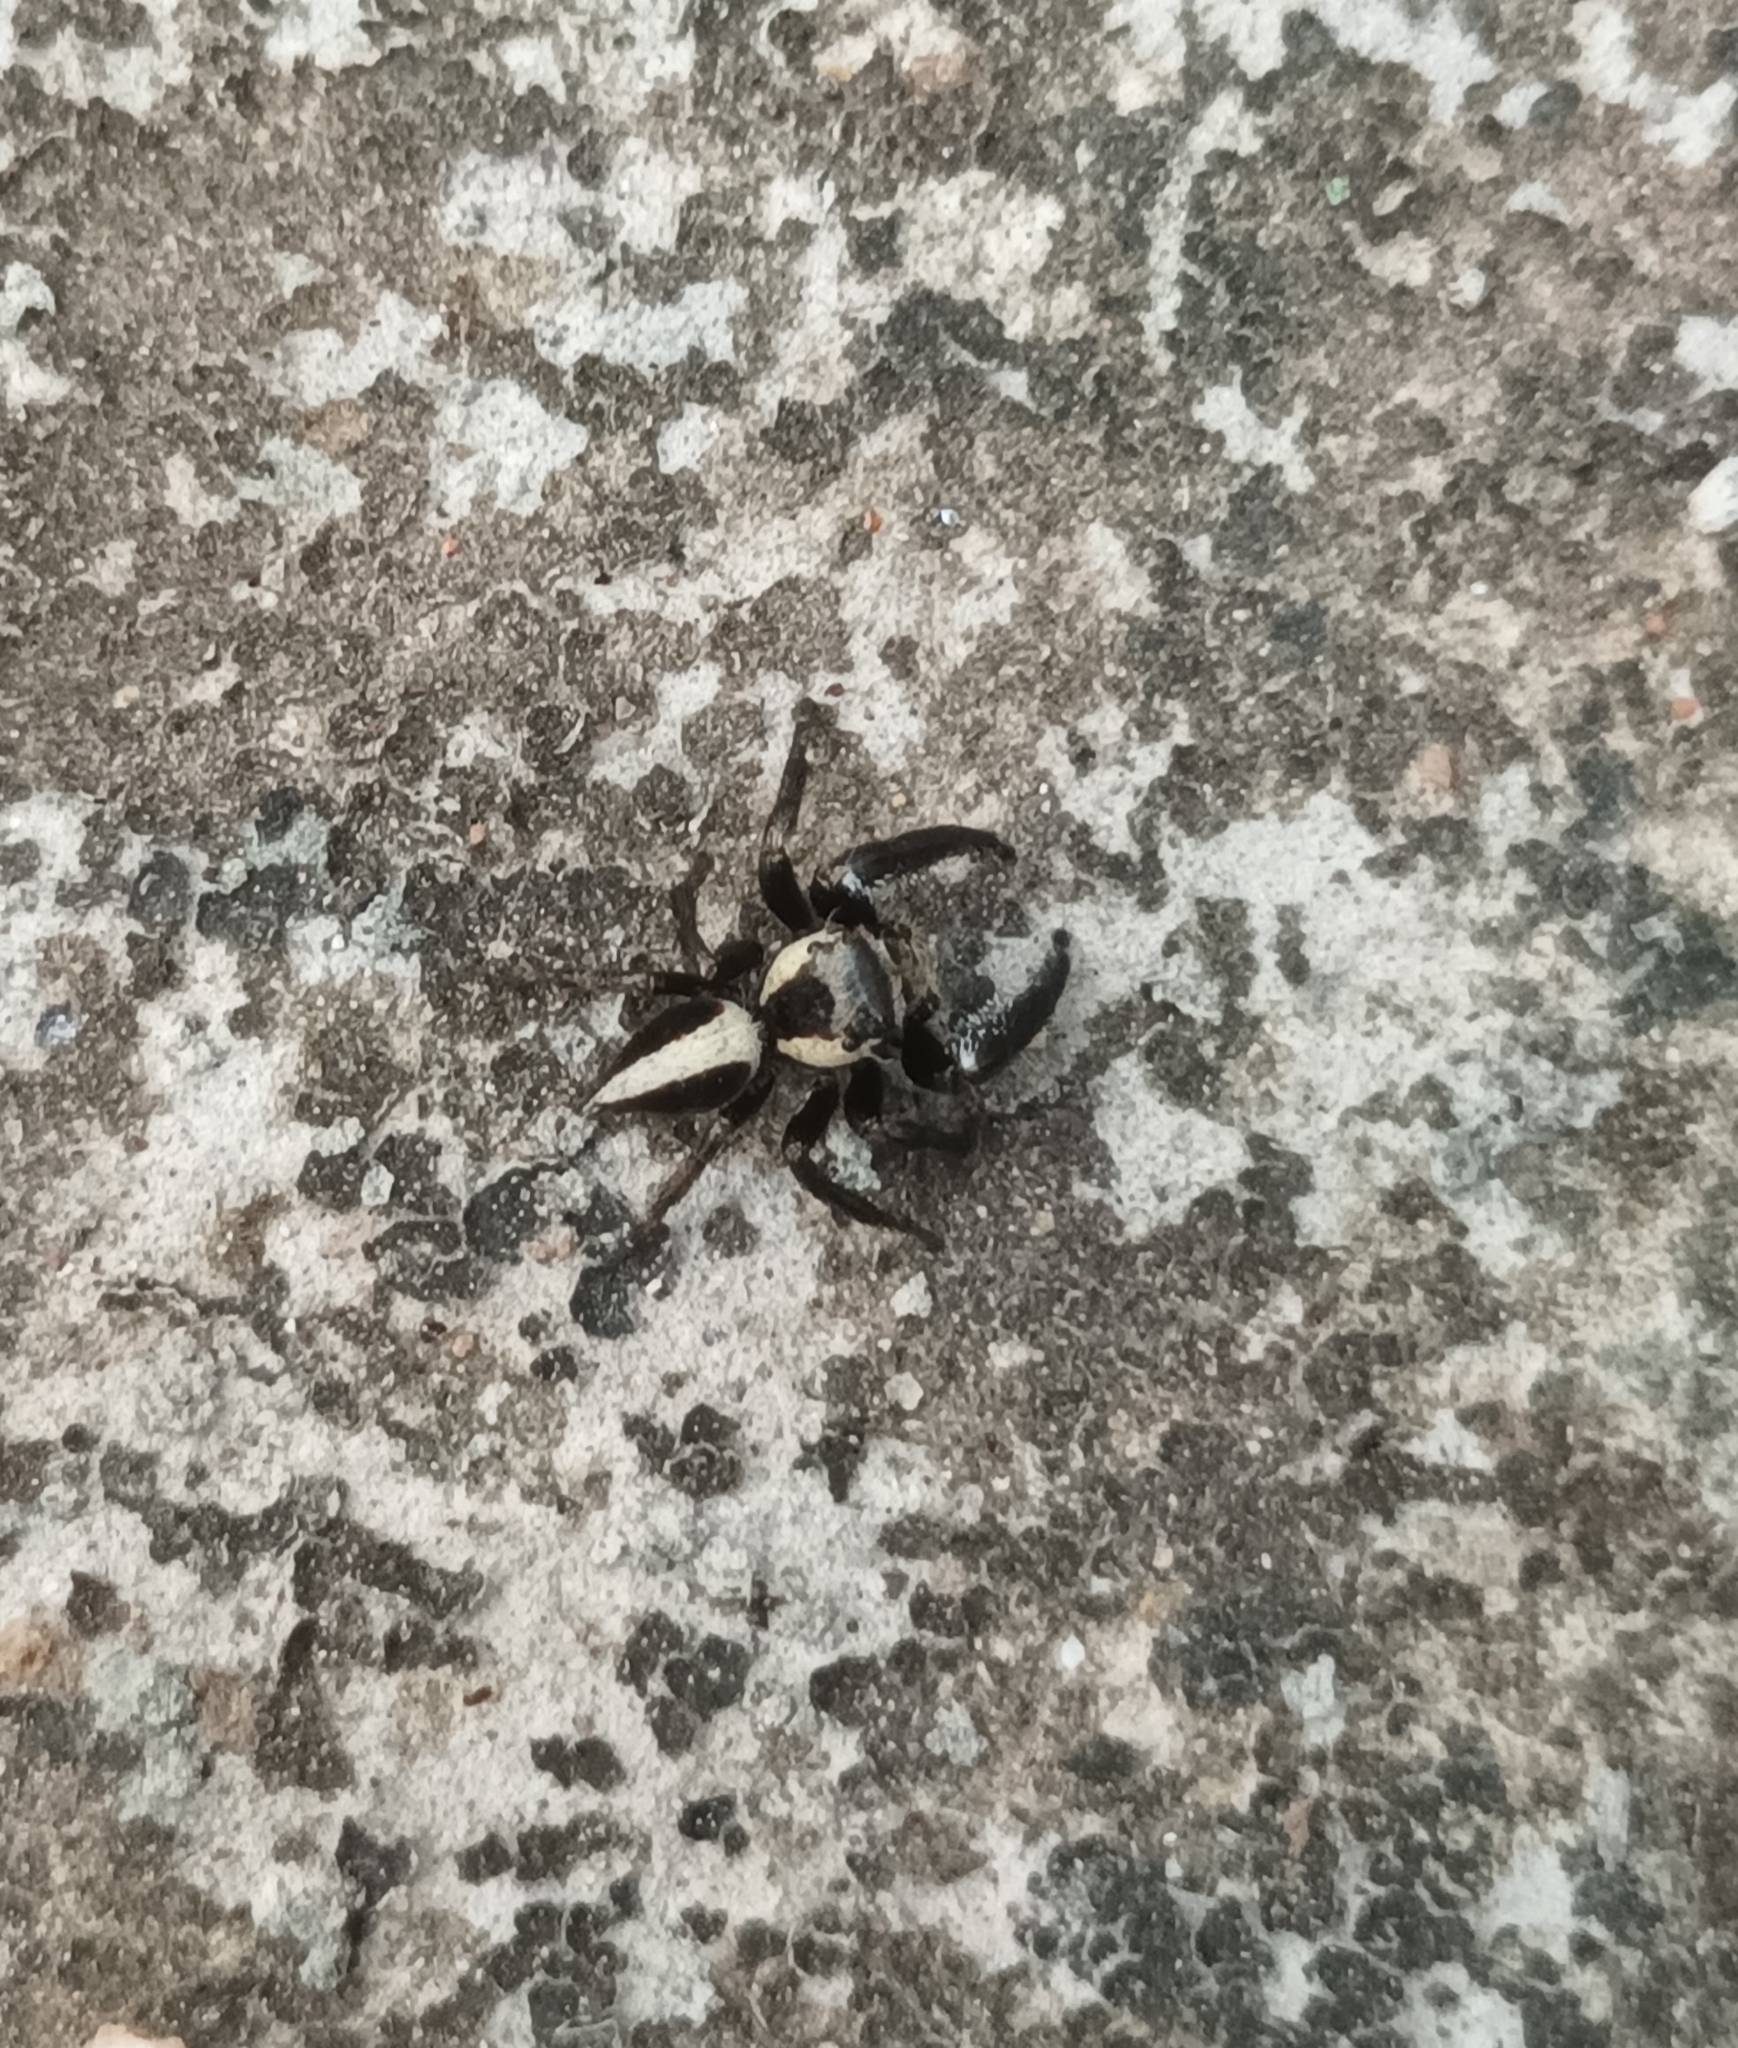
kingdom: Animalia
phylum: Arthropoda
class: Arachnida
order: Araneae
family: Salticidae
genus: Hyllus
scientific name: Hyllus manu
